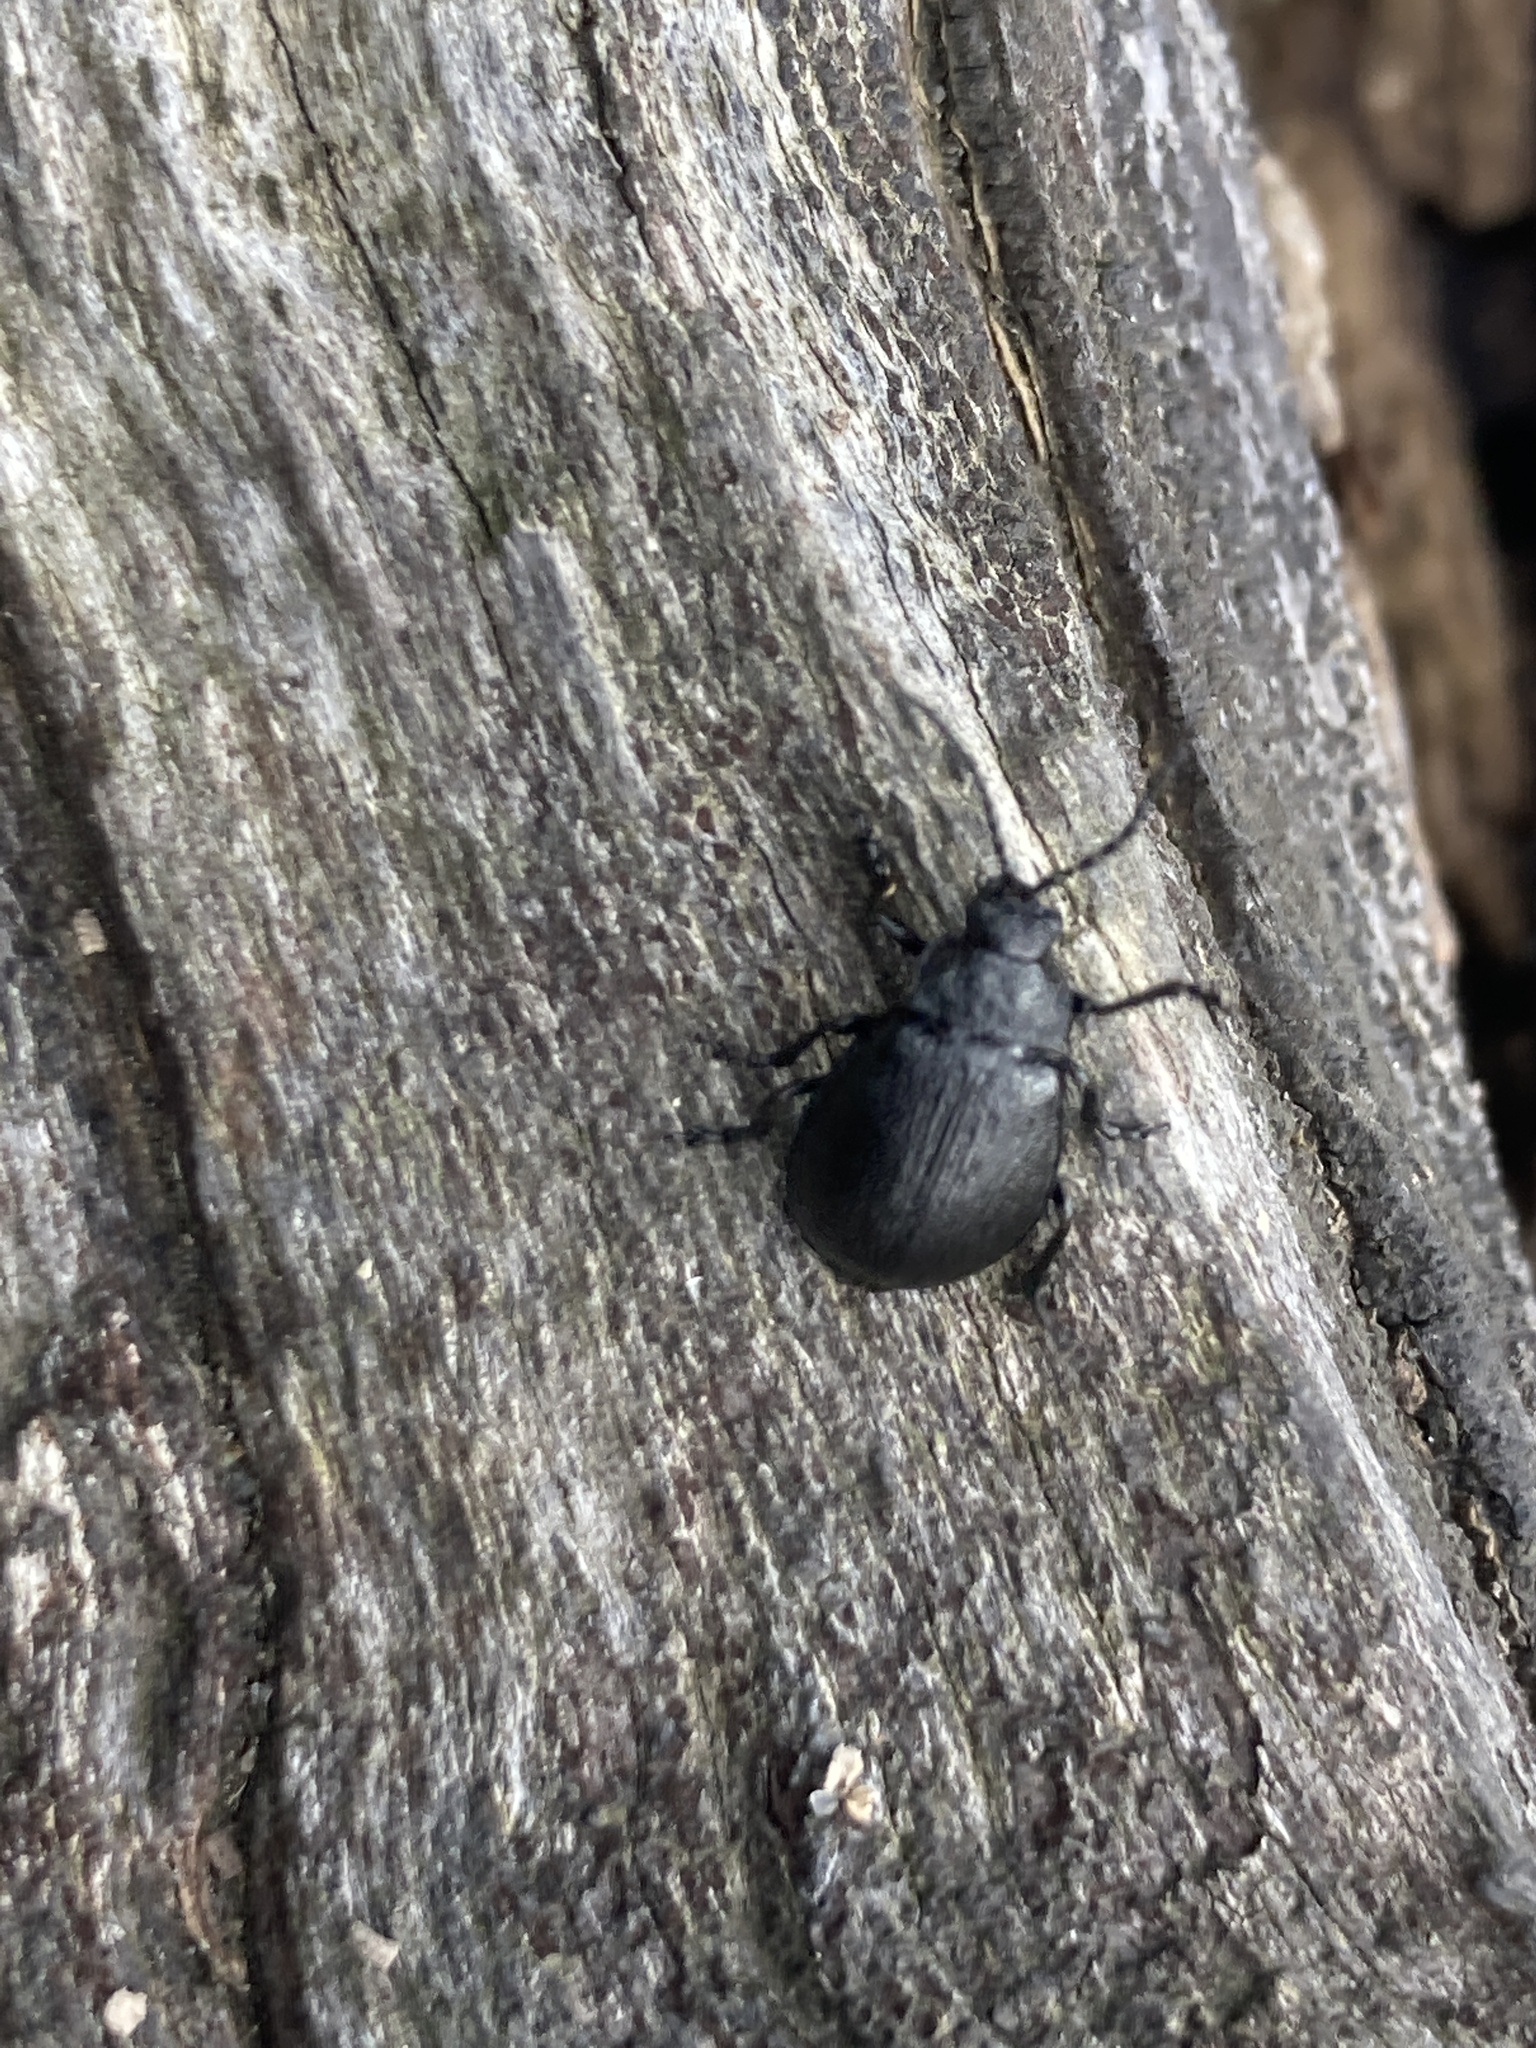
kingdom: Animalia
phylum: Arthropoda
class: Insecta
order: Coleoptera
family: Chrysomelidae
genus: Galeruca
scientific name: Galeruca tanaceti
